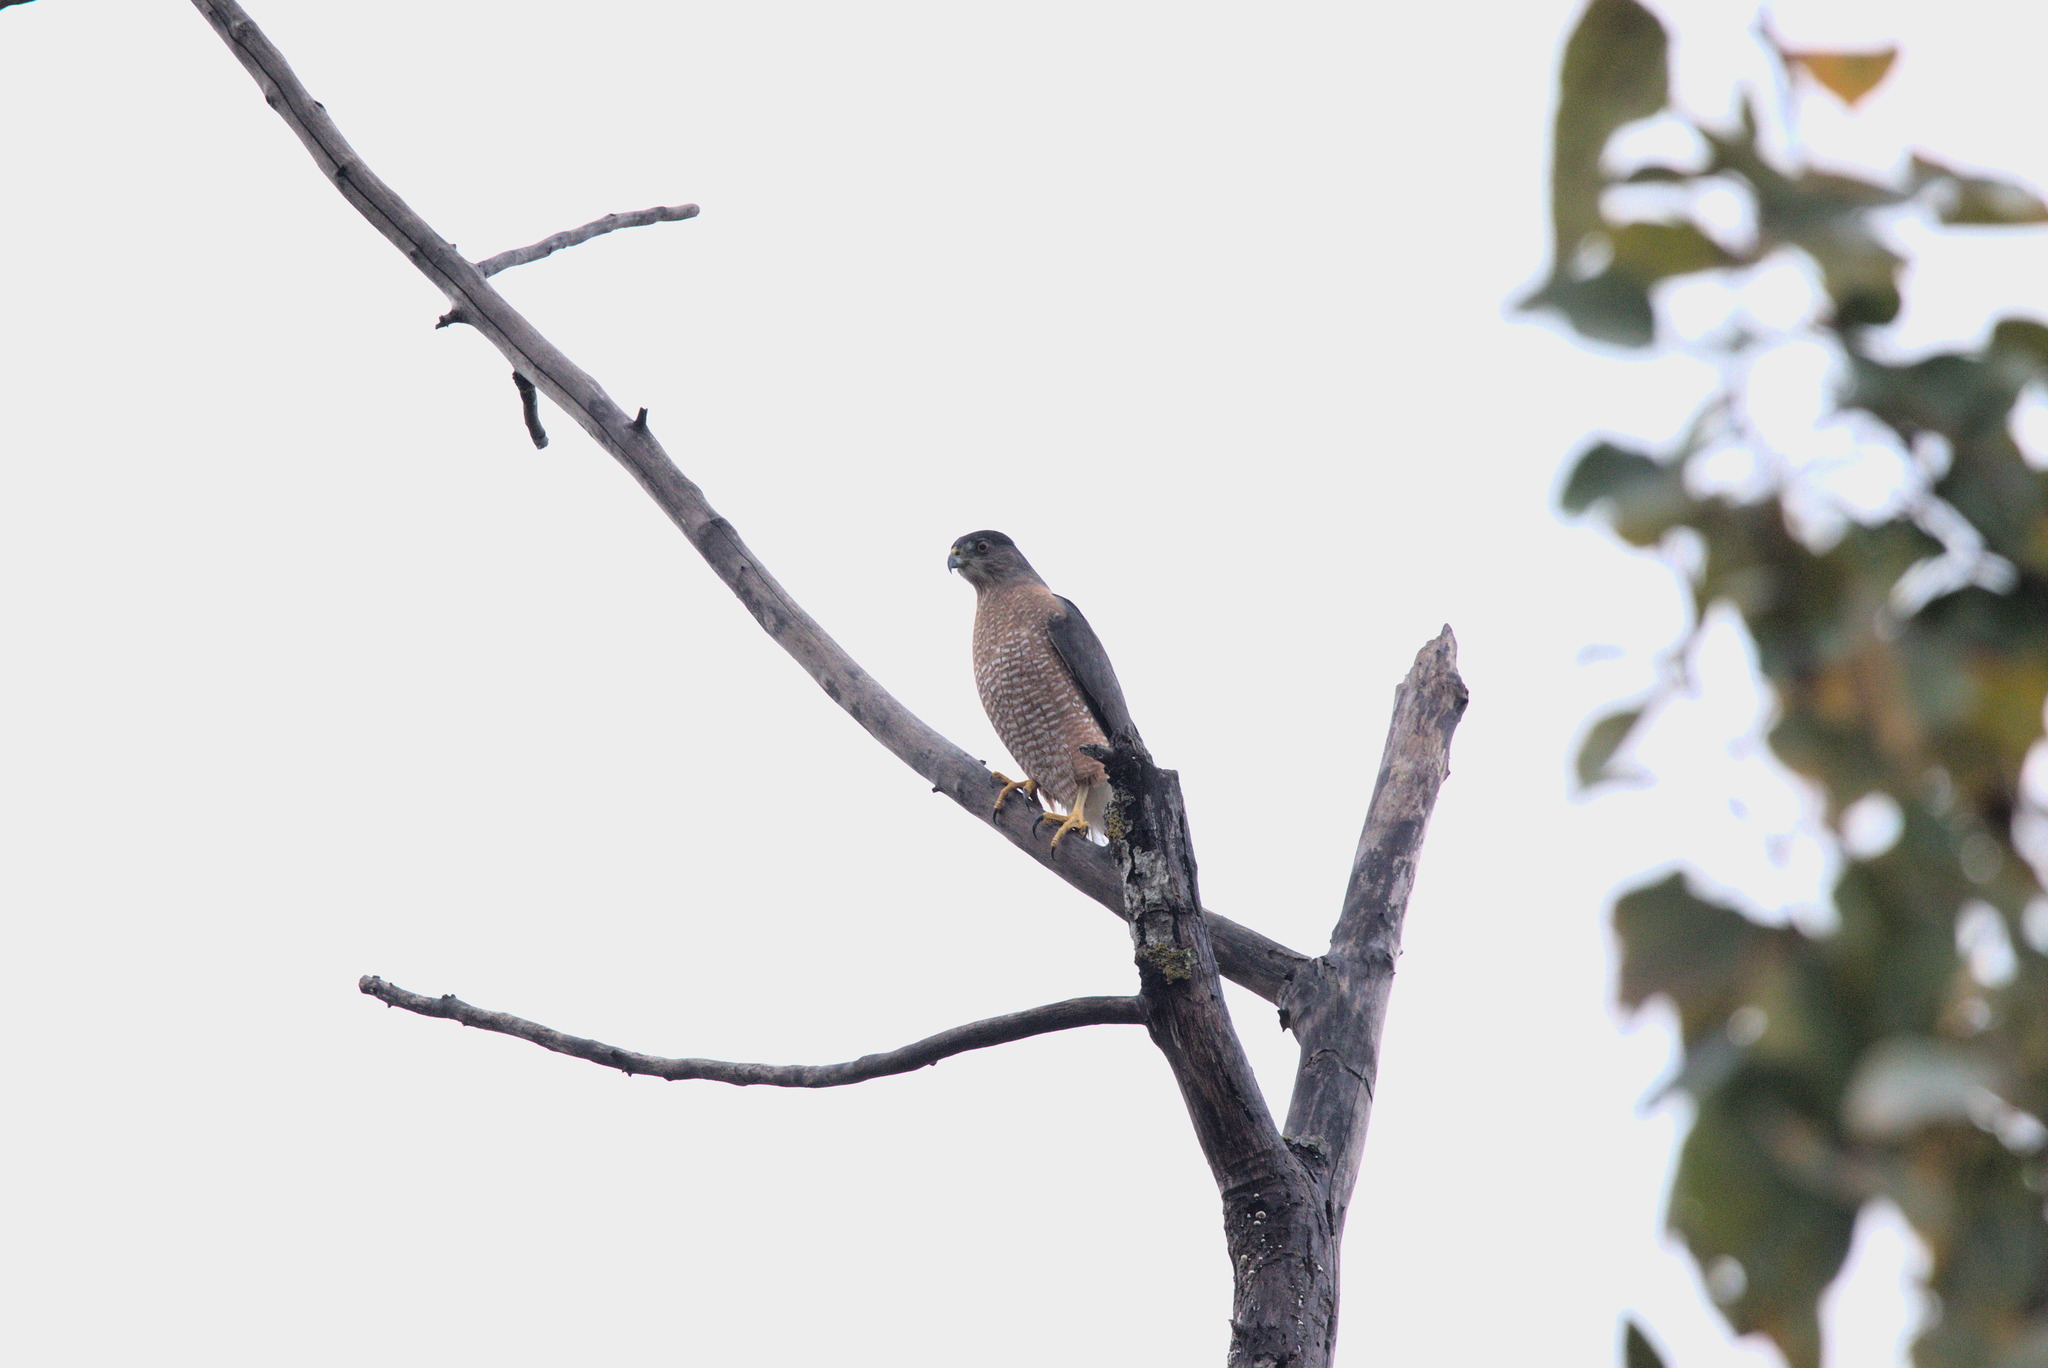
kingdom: Animalia
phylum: Chordata
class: Aves
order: Accipitriformes
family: Accipitridae
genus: Accipiter
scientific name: Accipiter cooperii
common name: Cooper's hawk
